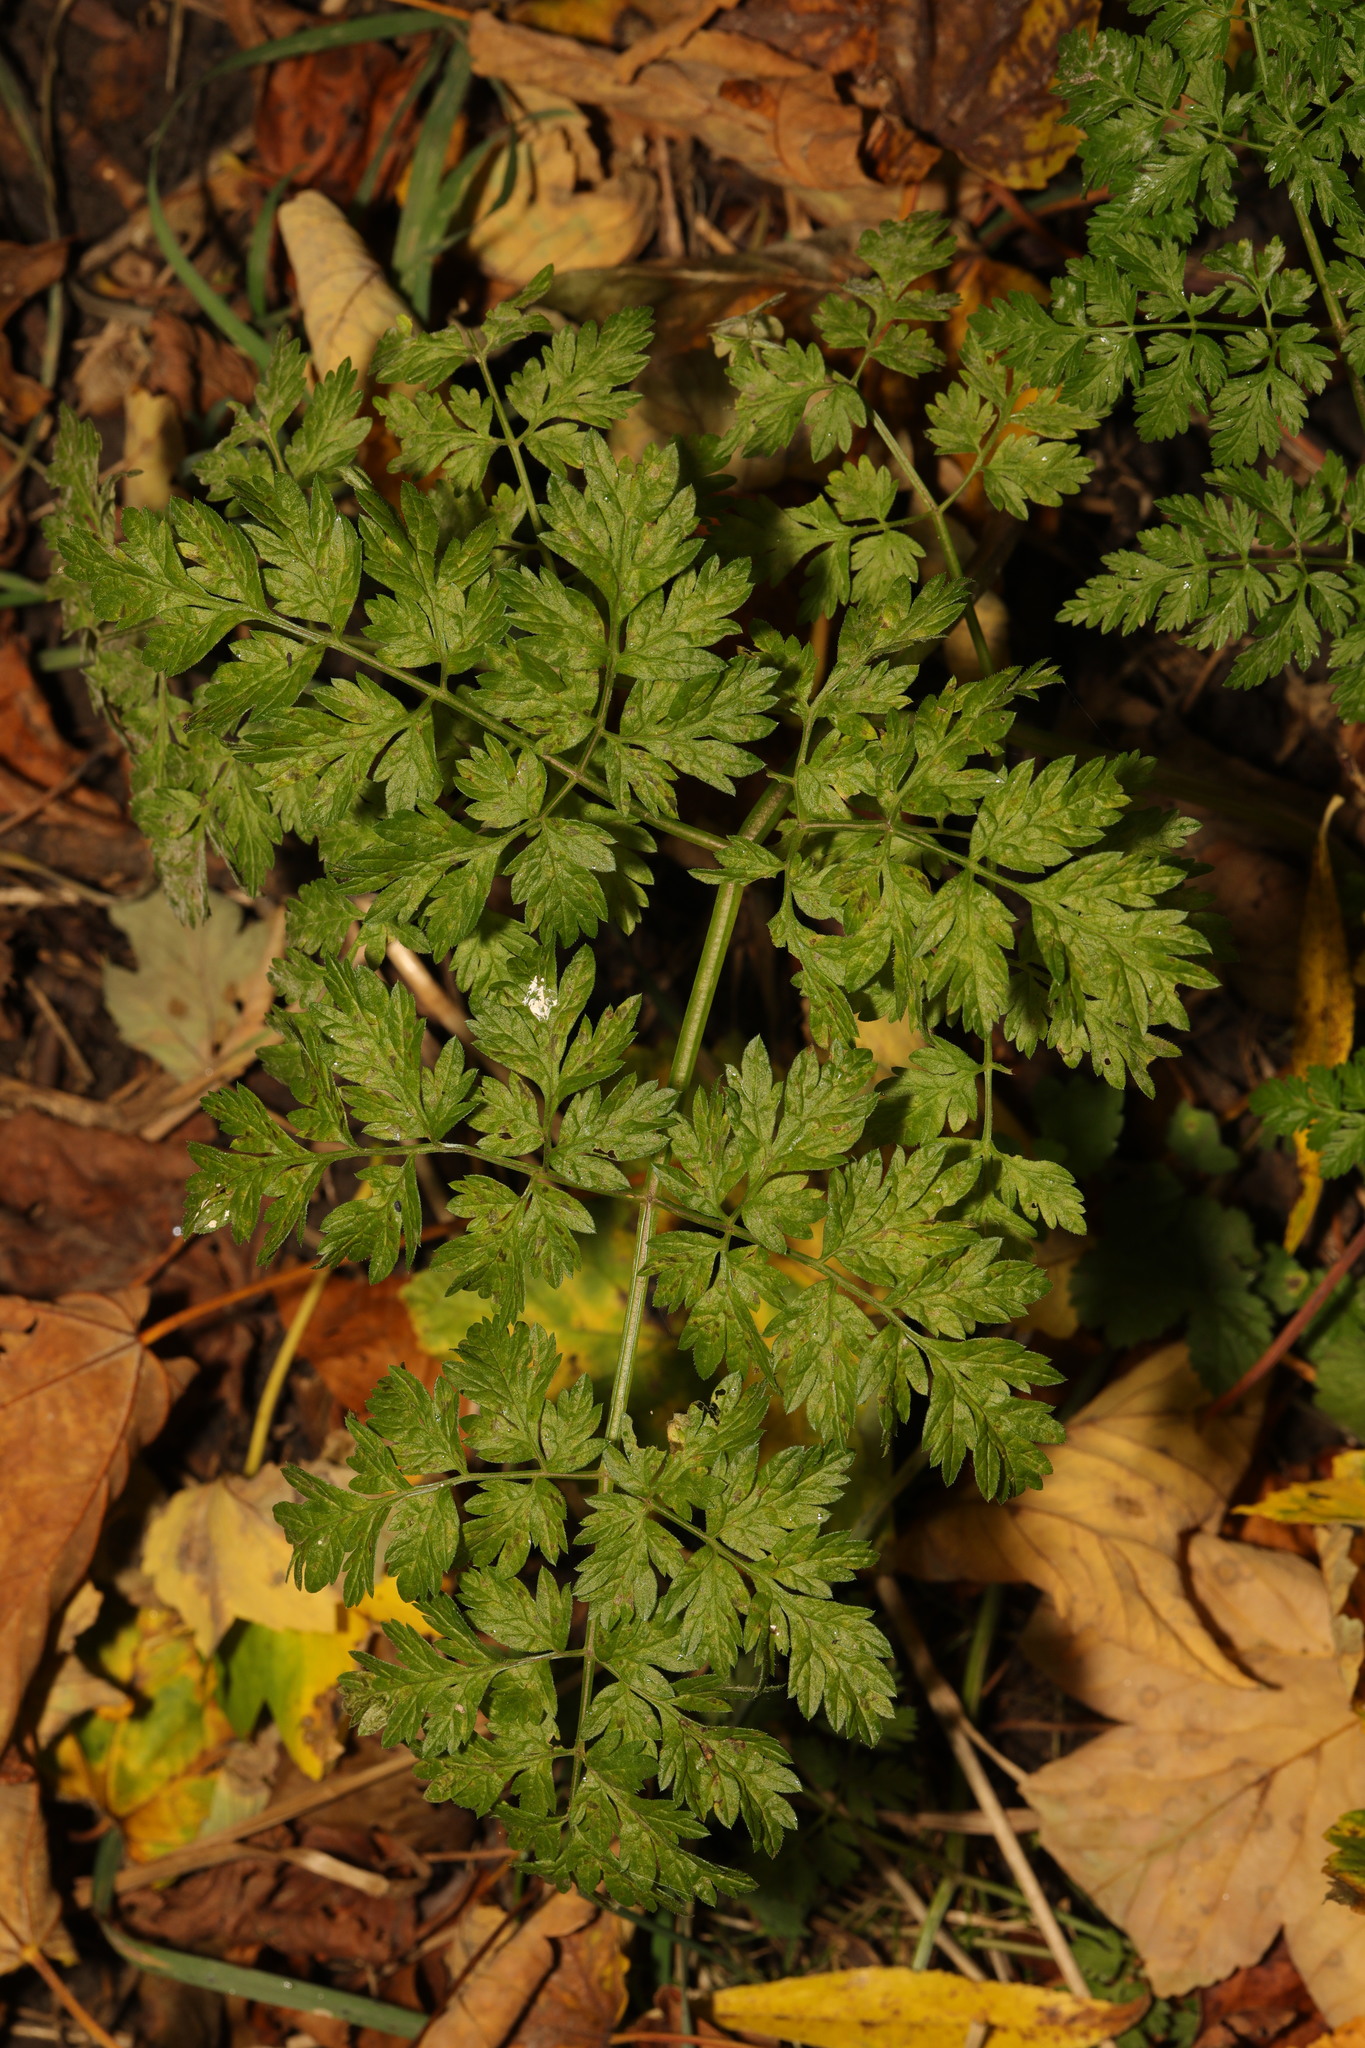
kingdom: Plantae
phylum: Tracheophyta
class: Magnoliopsida
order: Apiales
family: Apiaceae
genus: Anthriscus
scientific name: Anthriscus sylvestris
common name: Cow parsley
